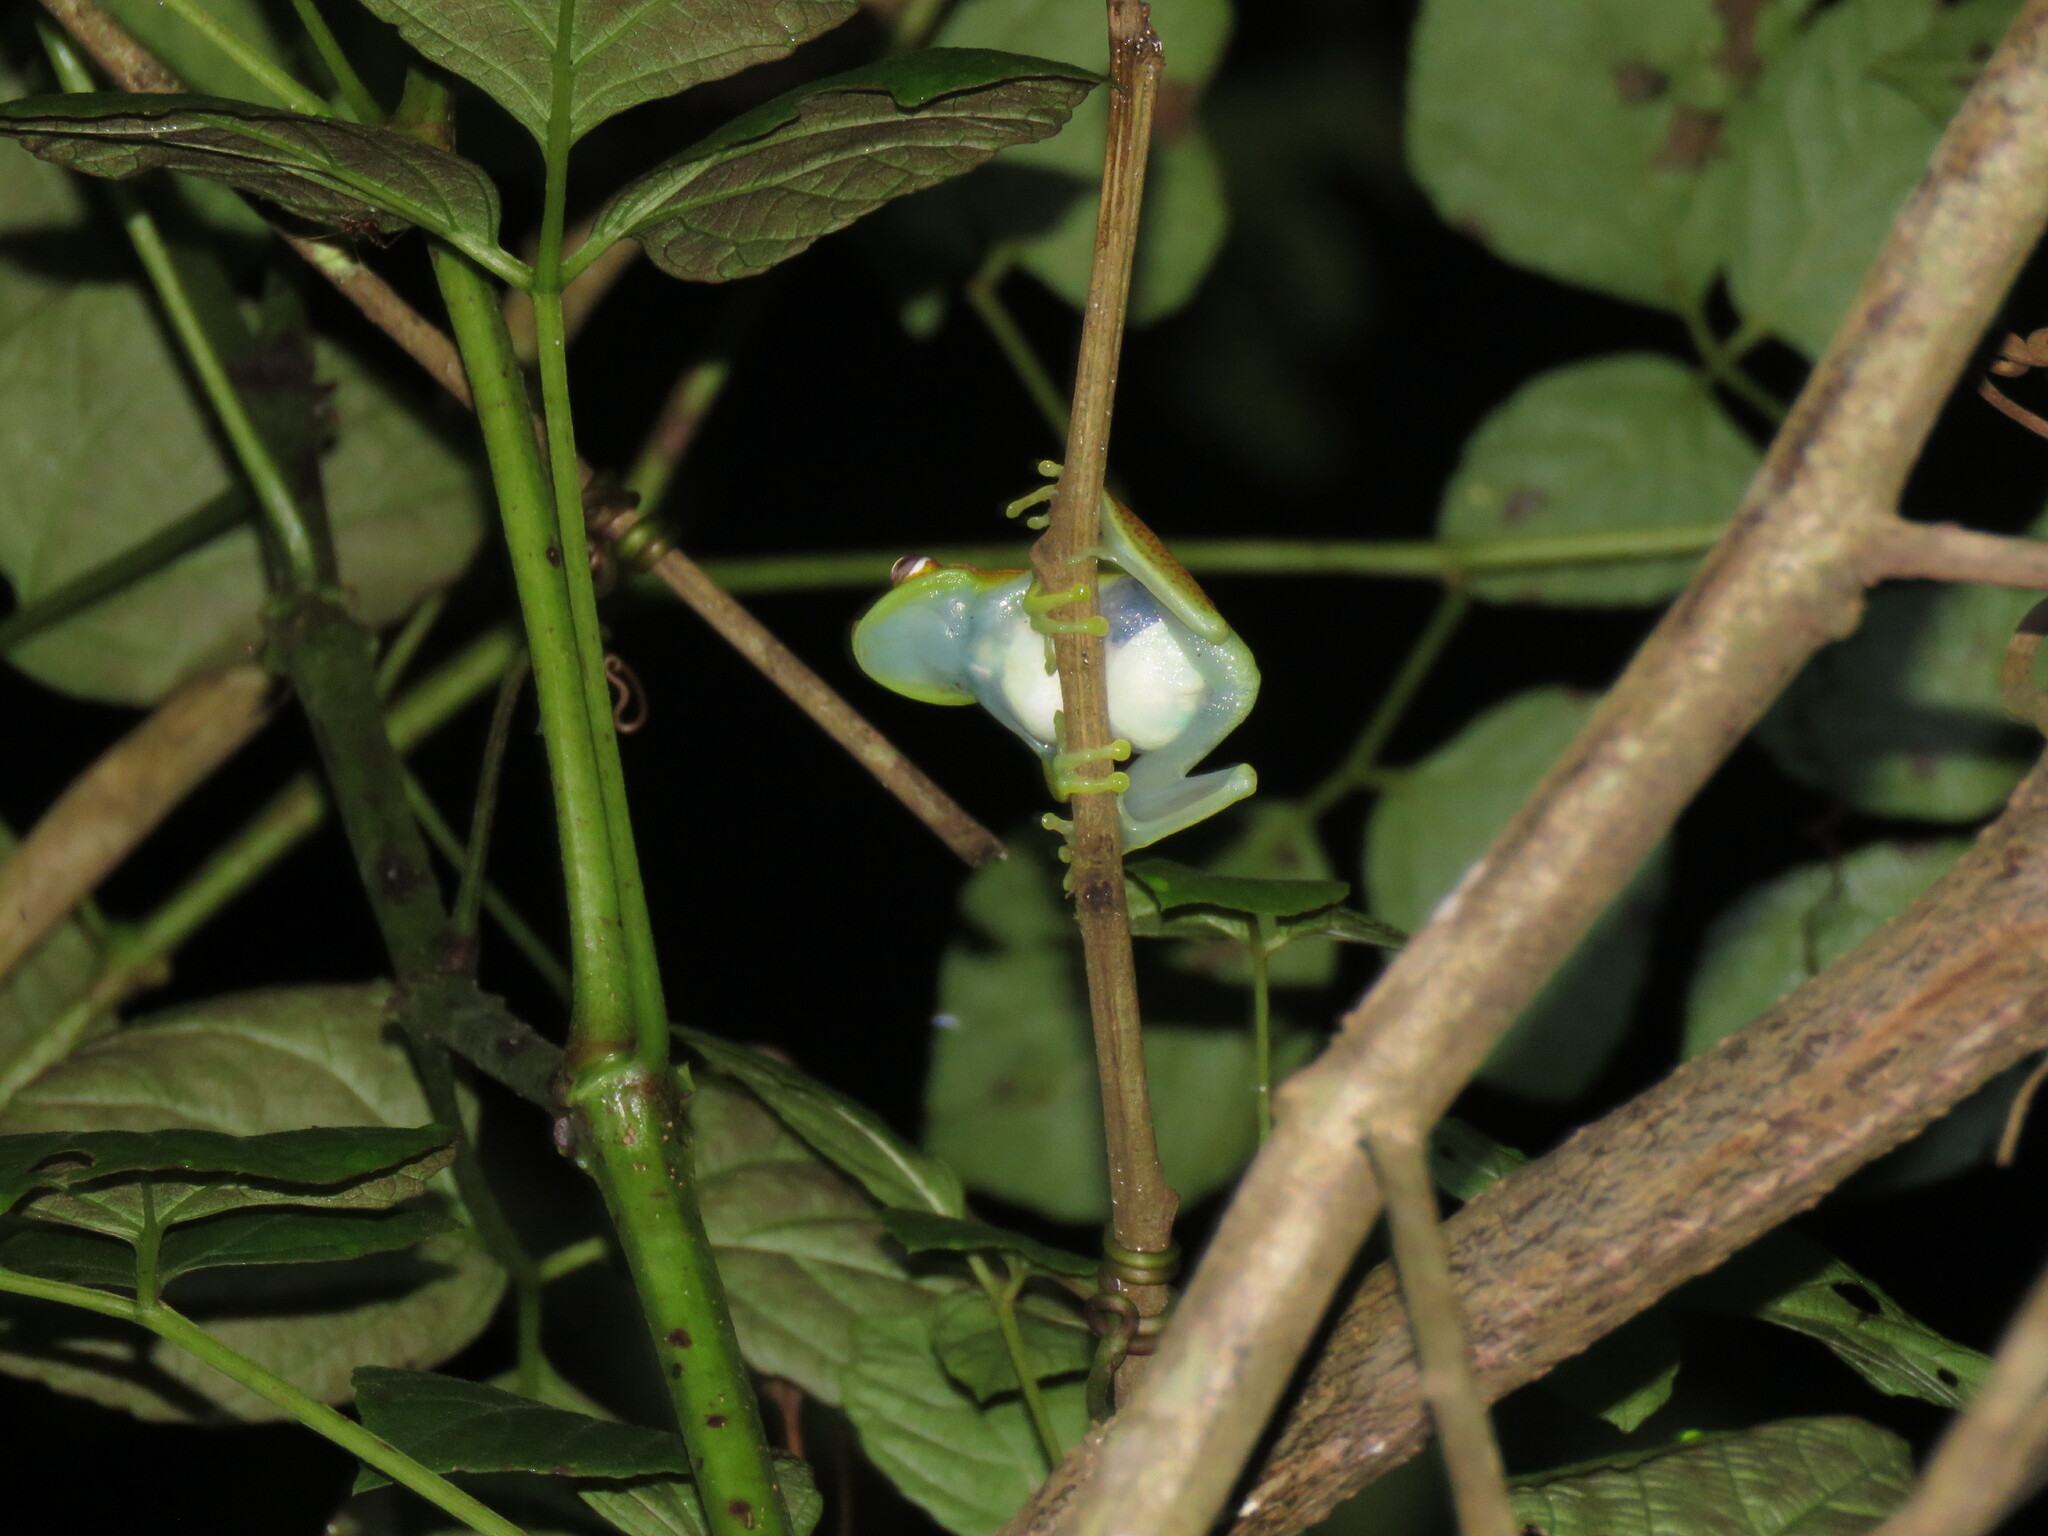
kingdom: Animalia
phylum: Chordata
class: Amphibia
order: Anura
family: Hylidae
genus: Boana
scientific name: Boana punctata
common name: Polka-dot treefrog
